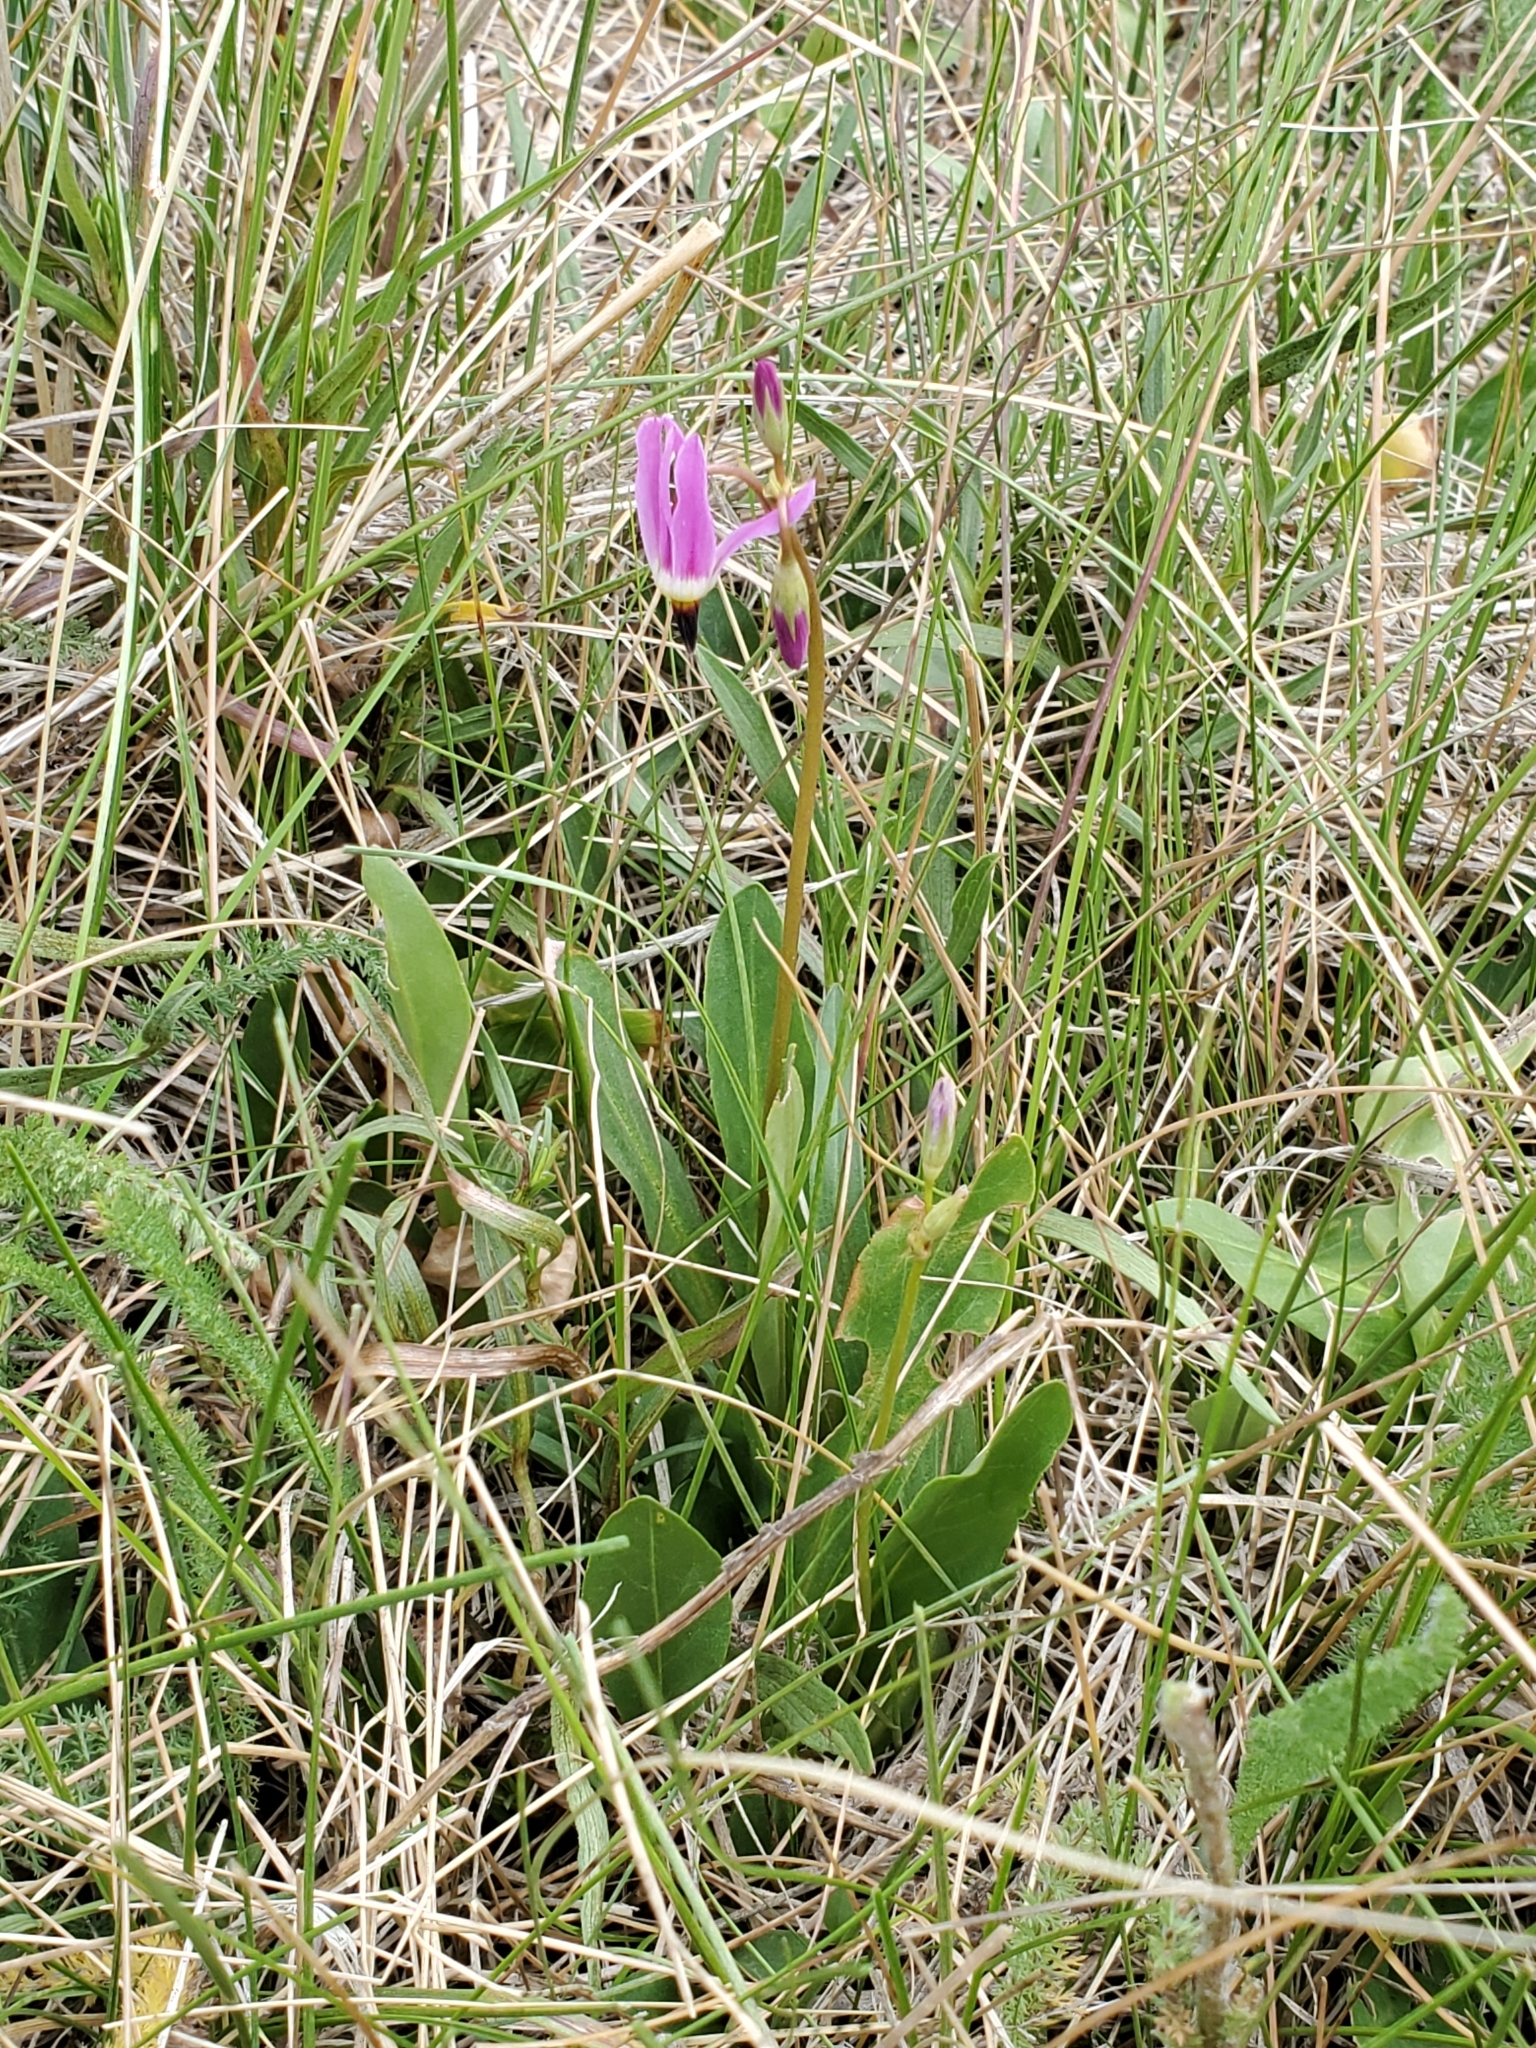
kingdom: Plantae
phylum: Tracheophyta
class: Magnoliopsida
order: Ericales
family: Primulaceae
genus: Dodecatheon
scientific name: Dodecatheon pulchellum
